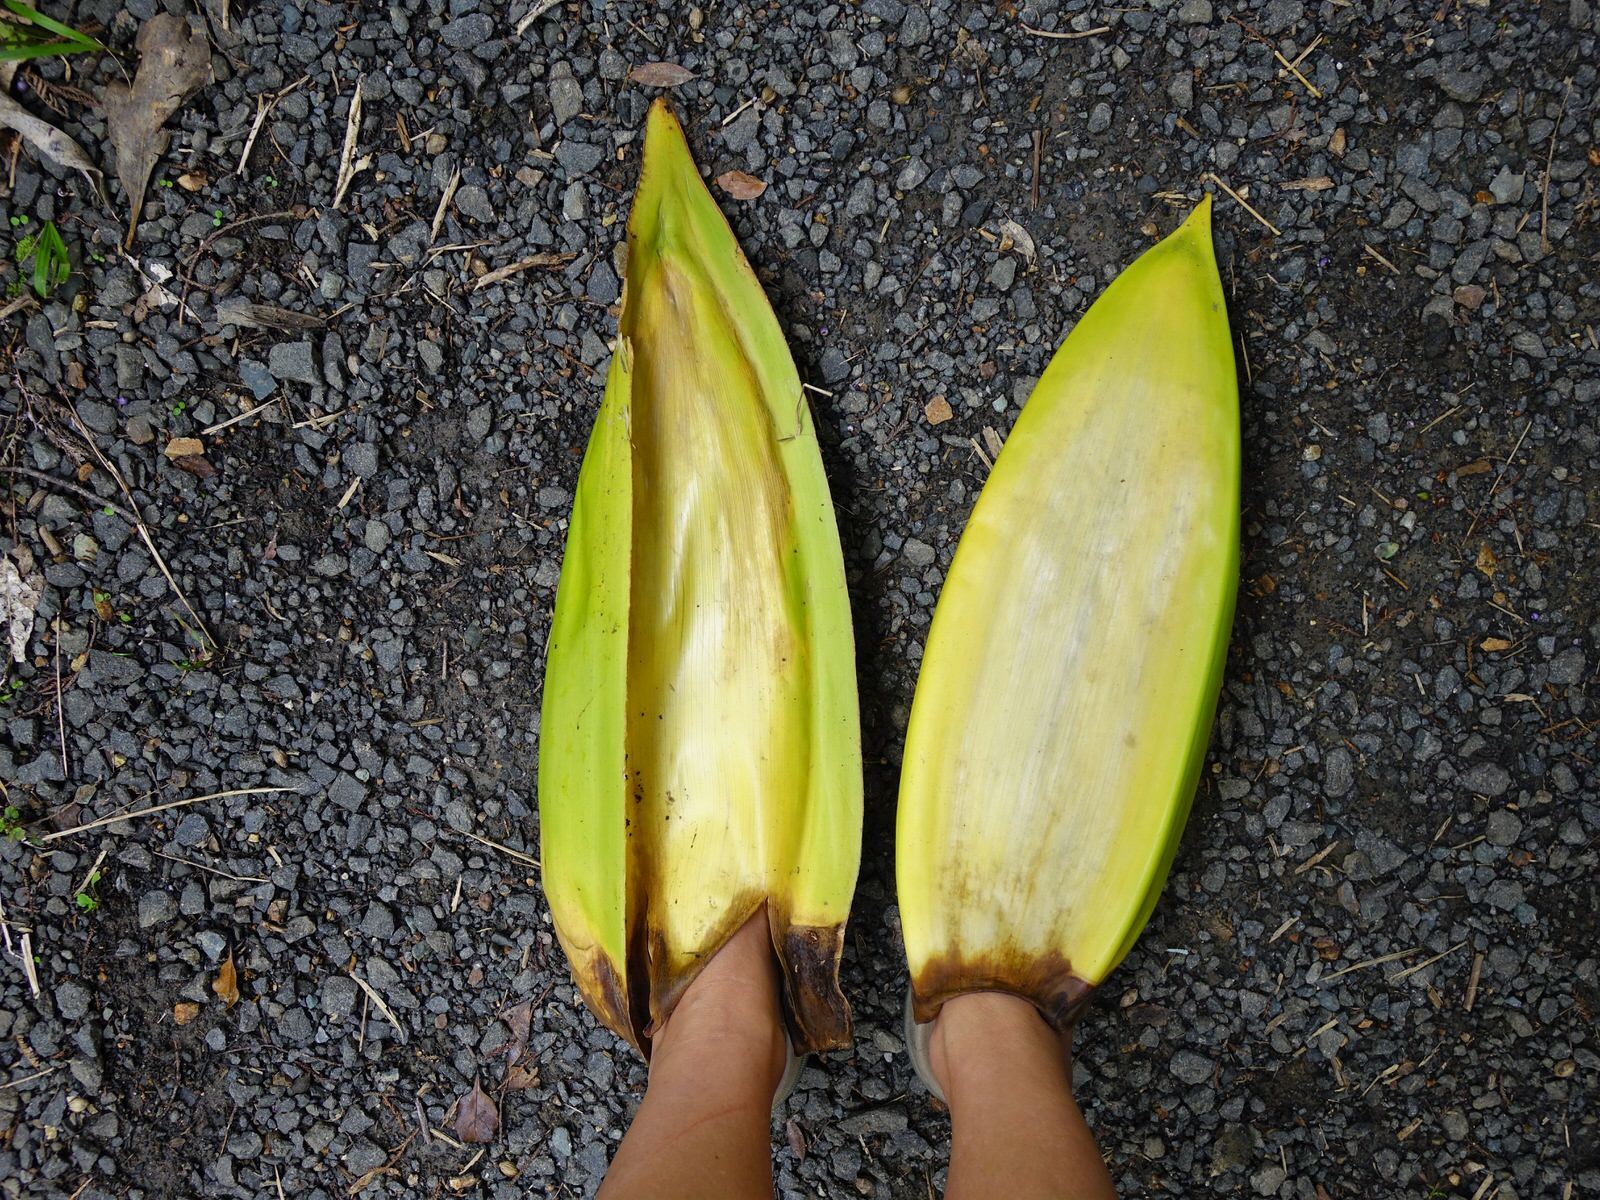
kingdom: Plantae
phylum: Tracheophyta
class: Liliopsida
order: Arecales
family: Arecaceae
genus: Rhopalostylis
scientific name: Rhopalostylis sapida
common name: Feather-duster palm
